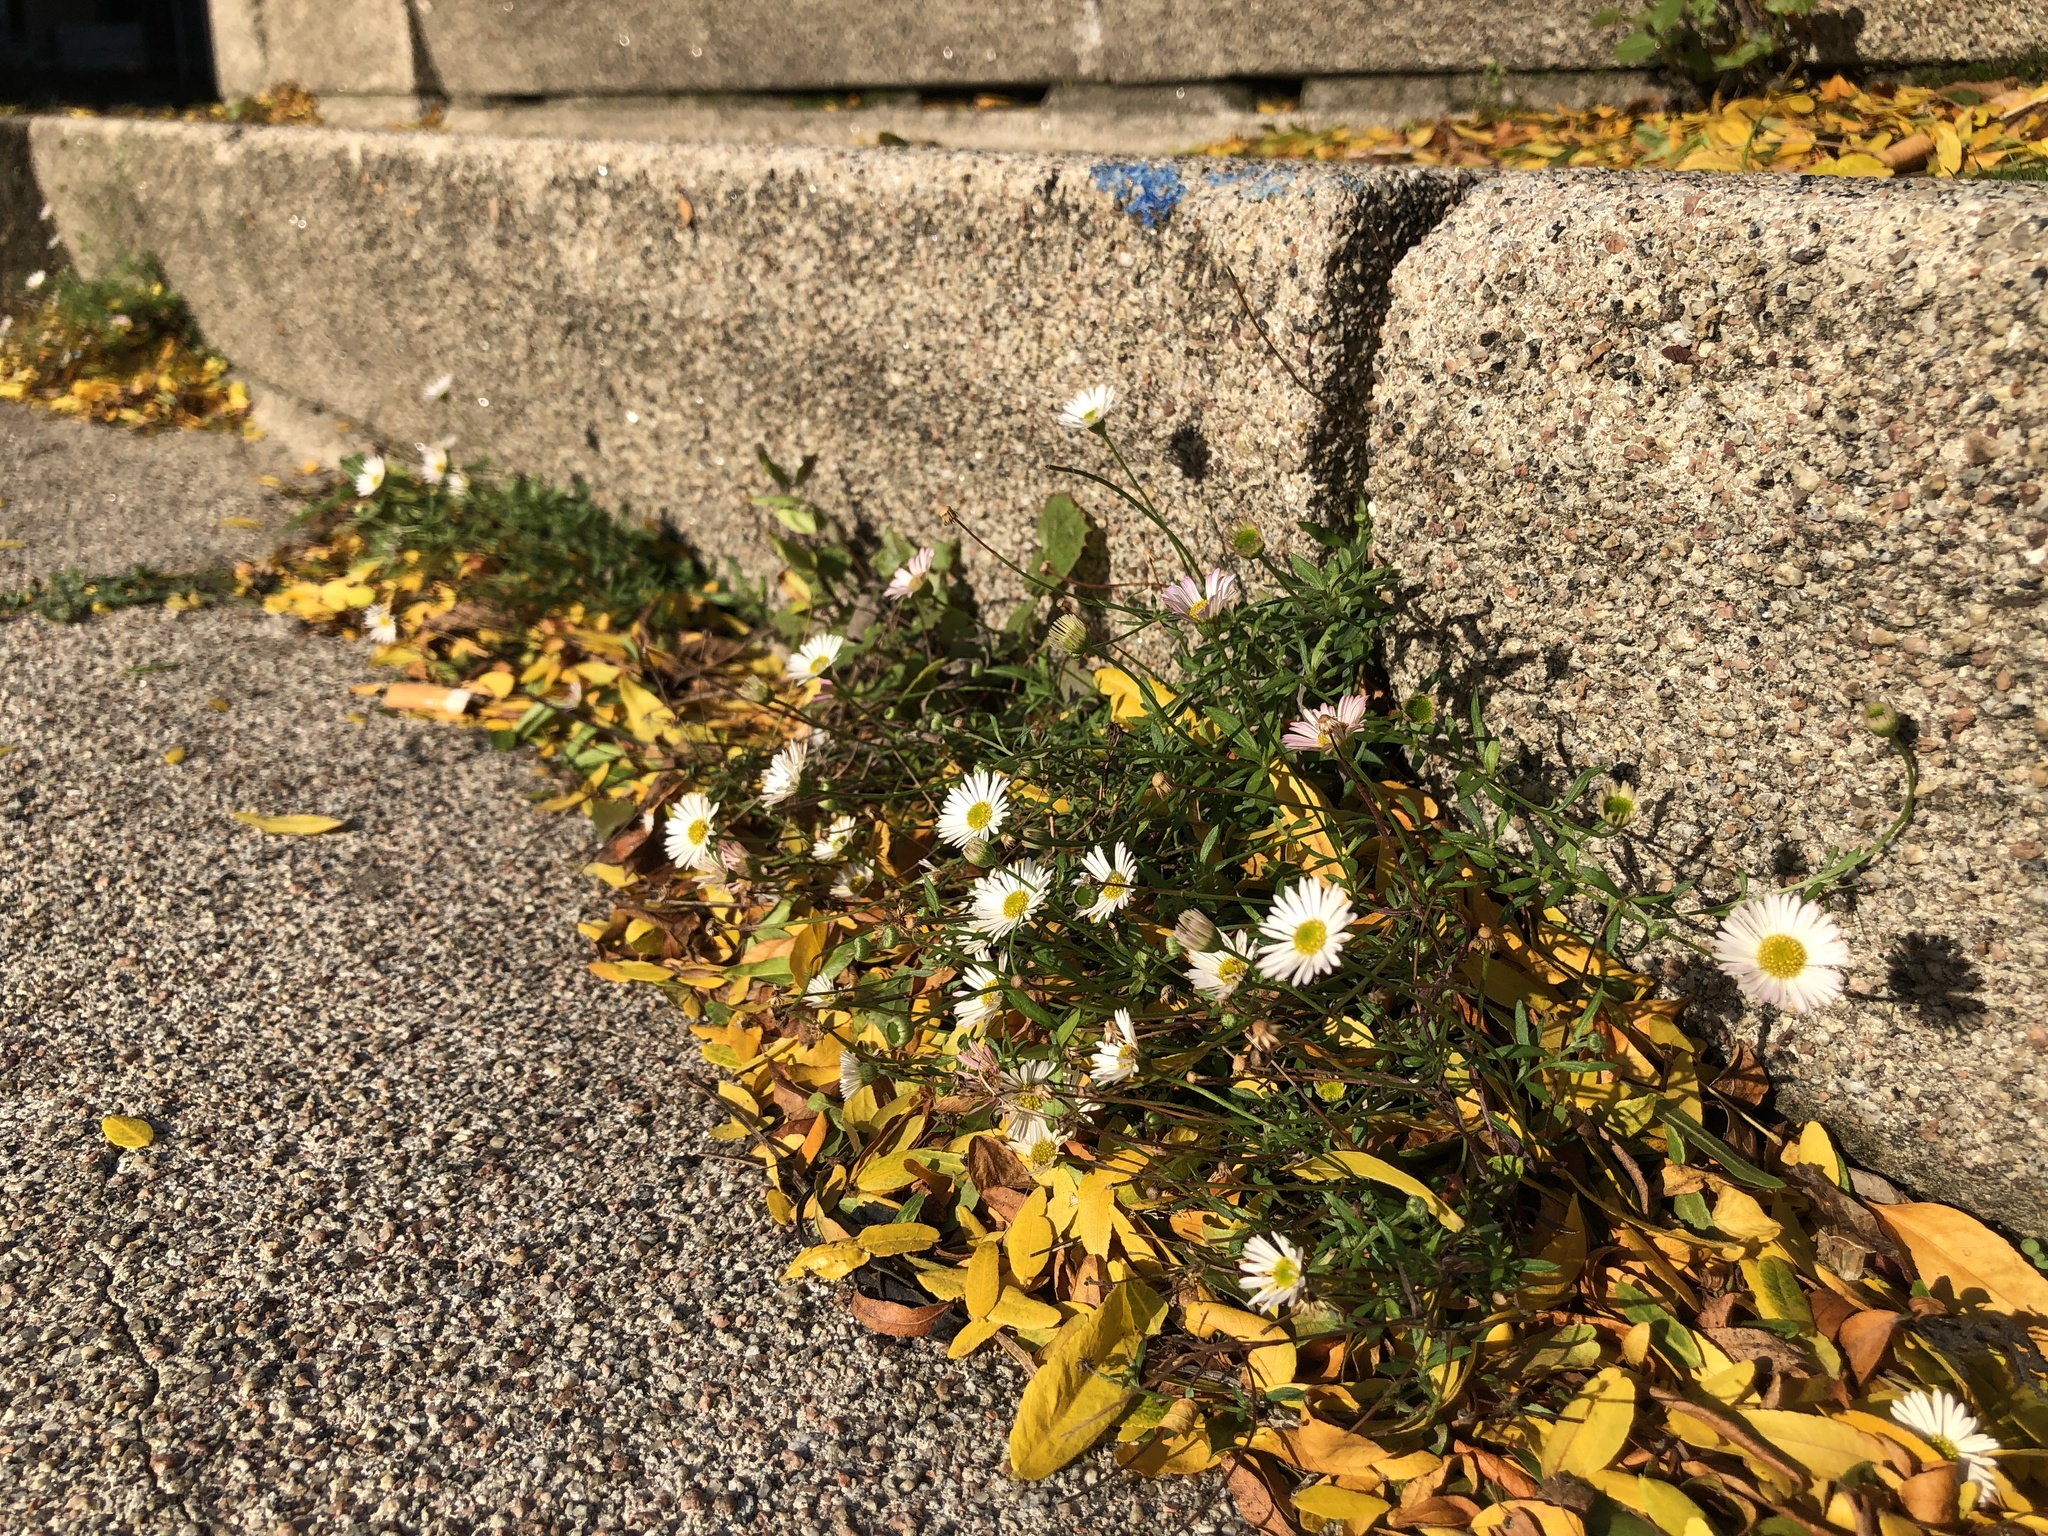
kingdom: Plantae
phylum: Tracheophyta
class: Magnoliopsida
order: Asterales
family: Asteraceae
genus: Erigeron
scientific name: Erigeron karvinskianus
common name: Mexican fleabane
